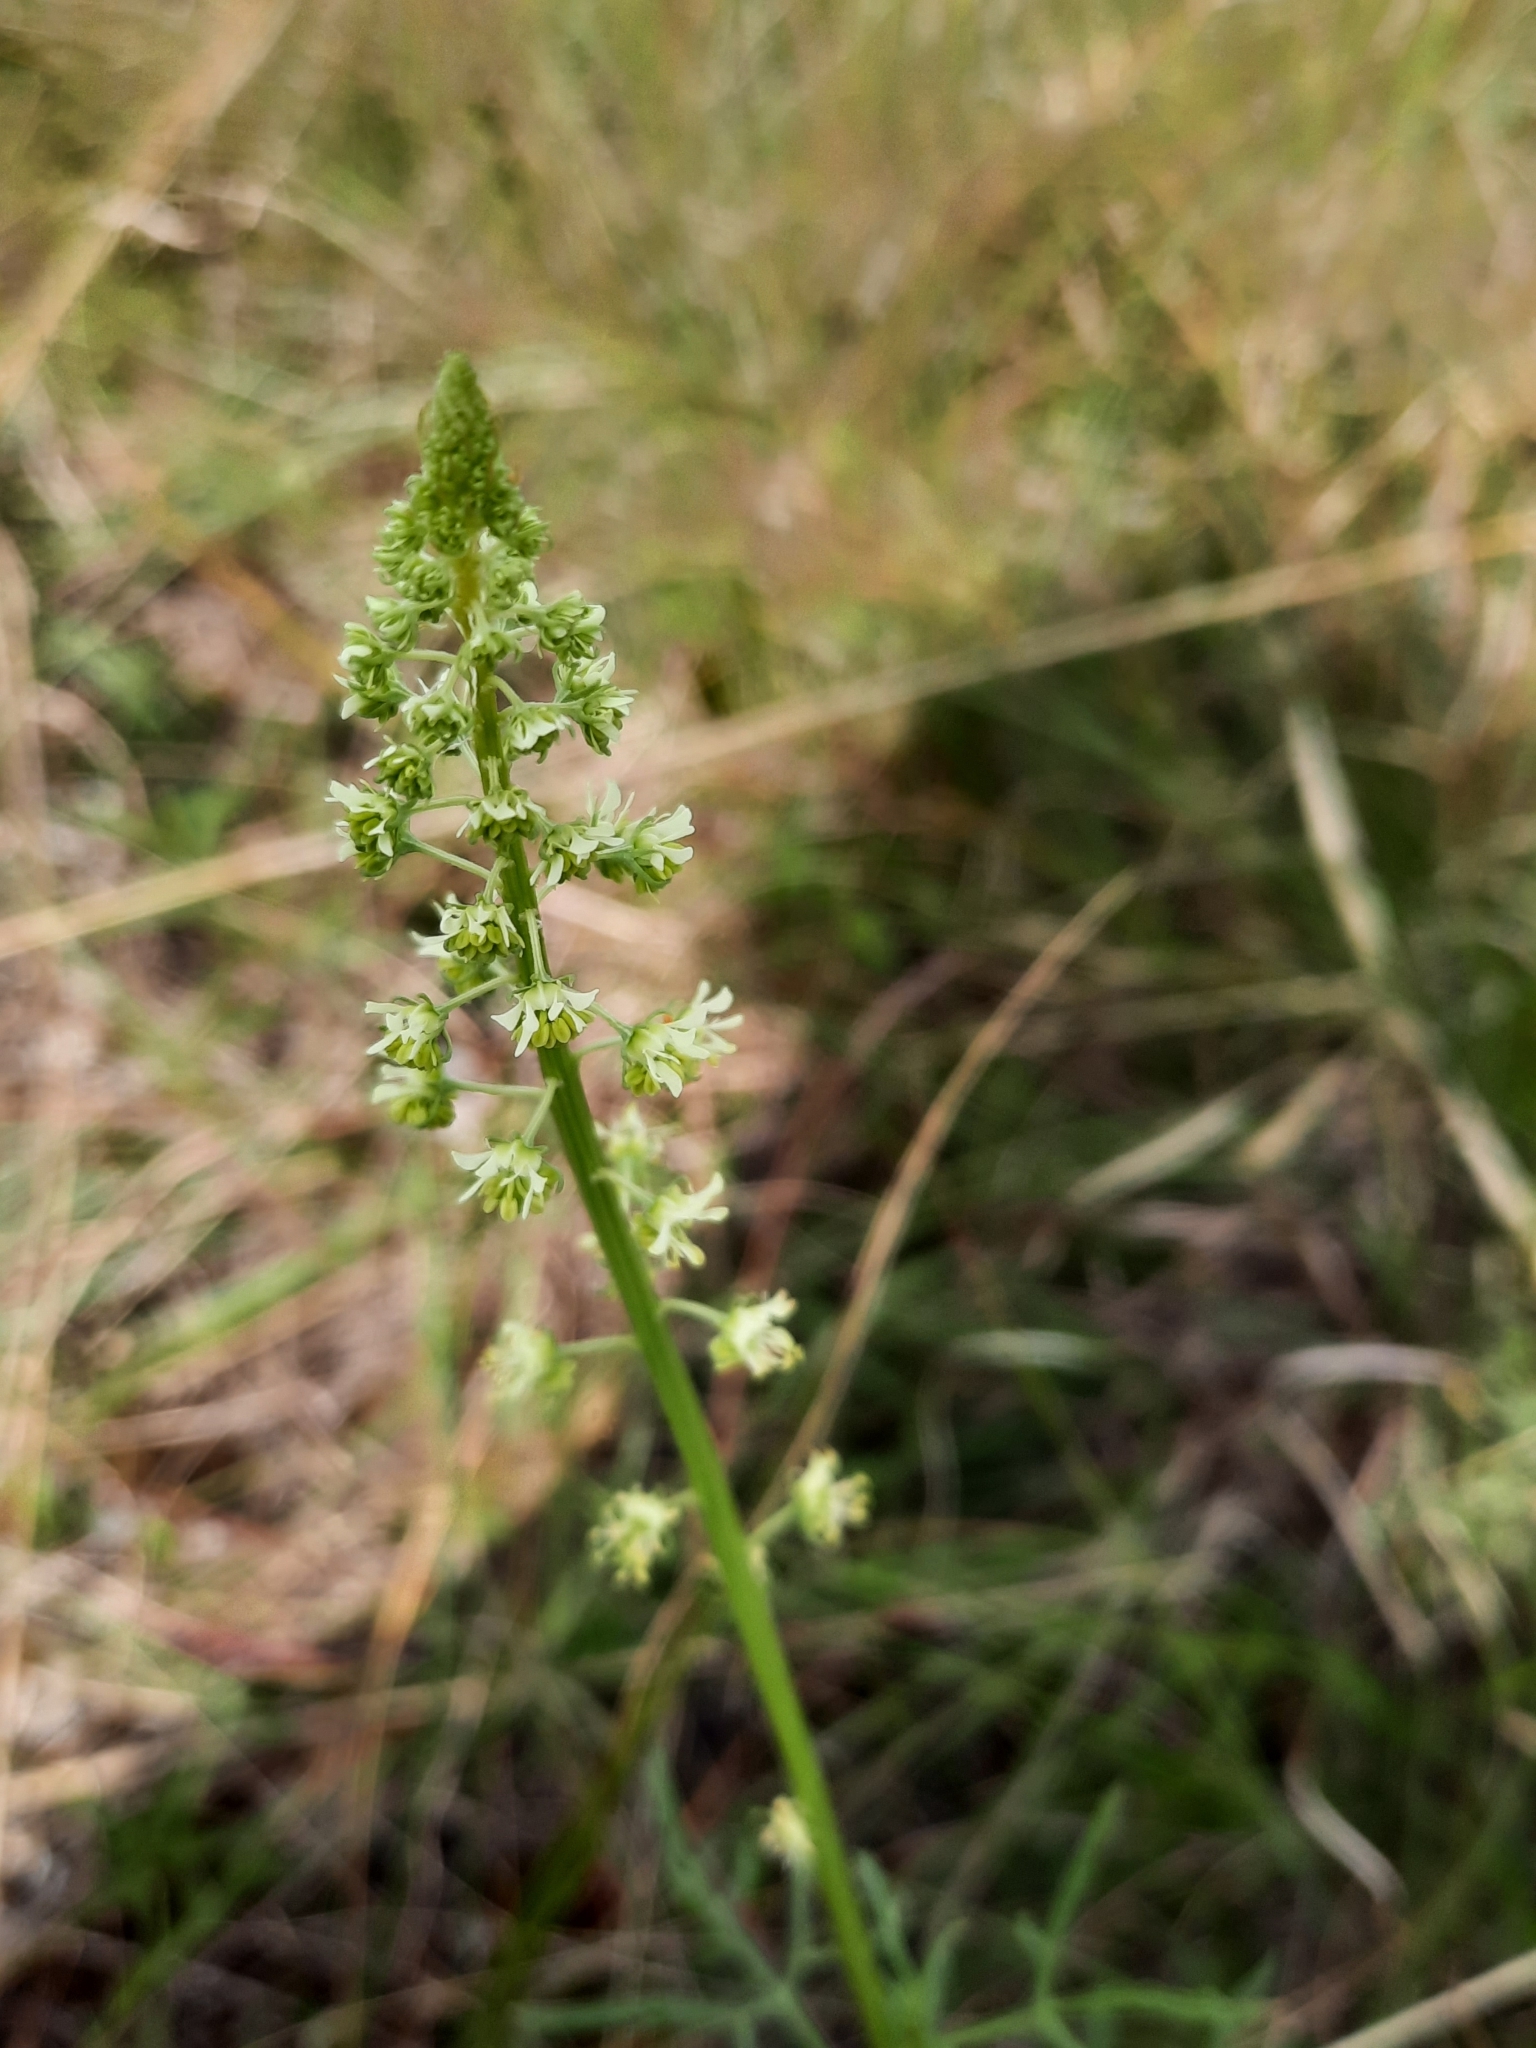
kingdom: Plantae
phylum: Tracheophyta
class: Magnoliopsida
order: Brassicales
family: Resedaceae
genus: Reseda
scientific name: Reseda lutea
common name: Wild mignonette
